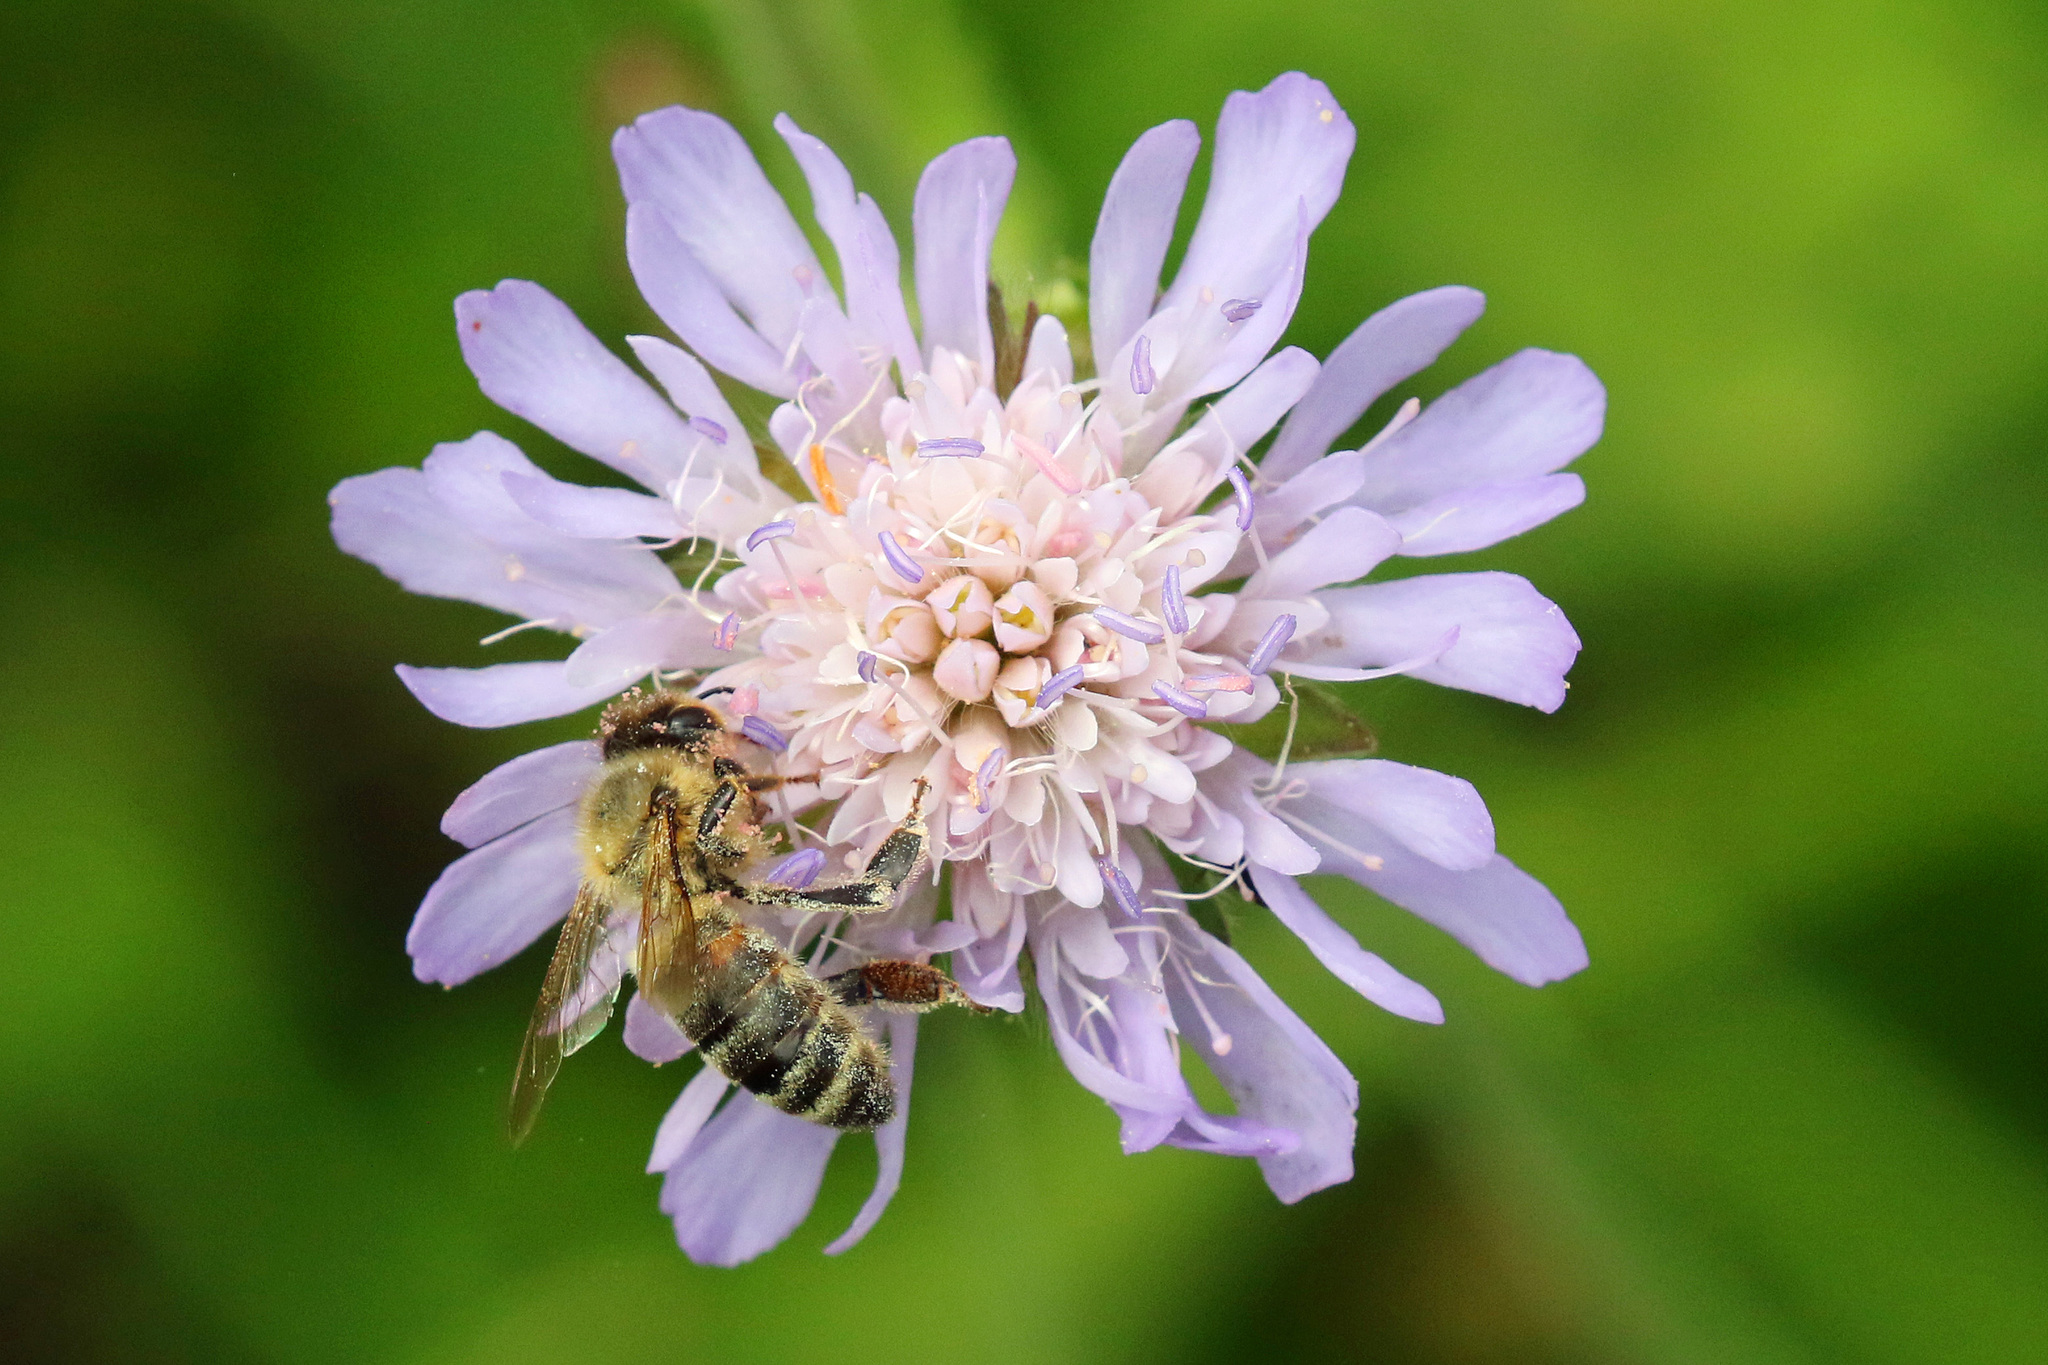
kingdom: Animalia
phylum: Arthropoda
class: Insecta
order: Hymenoptera
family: Apidae
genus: Apis
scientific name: Apis mellifera
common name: Honey bee
